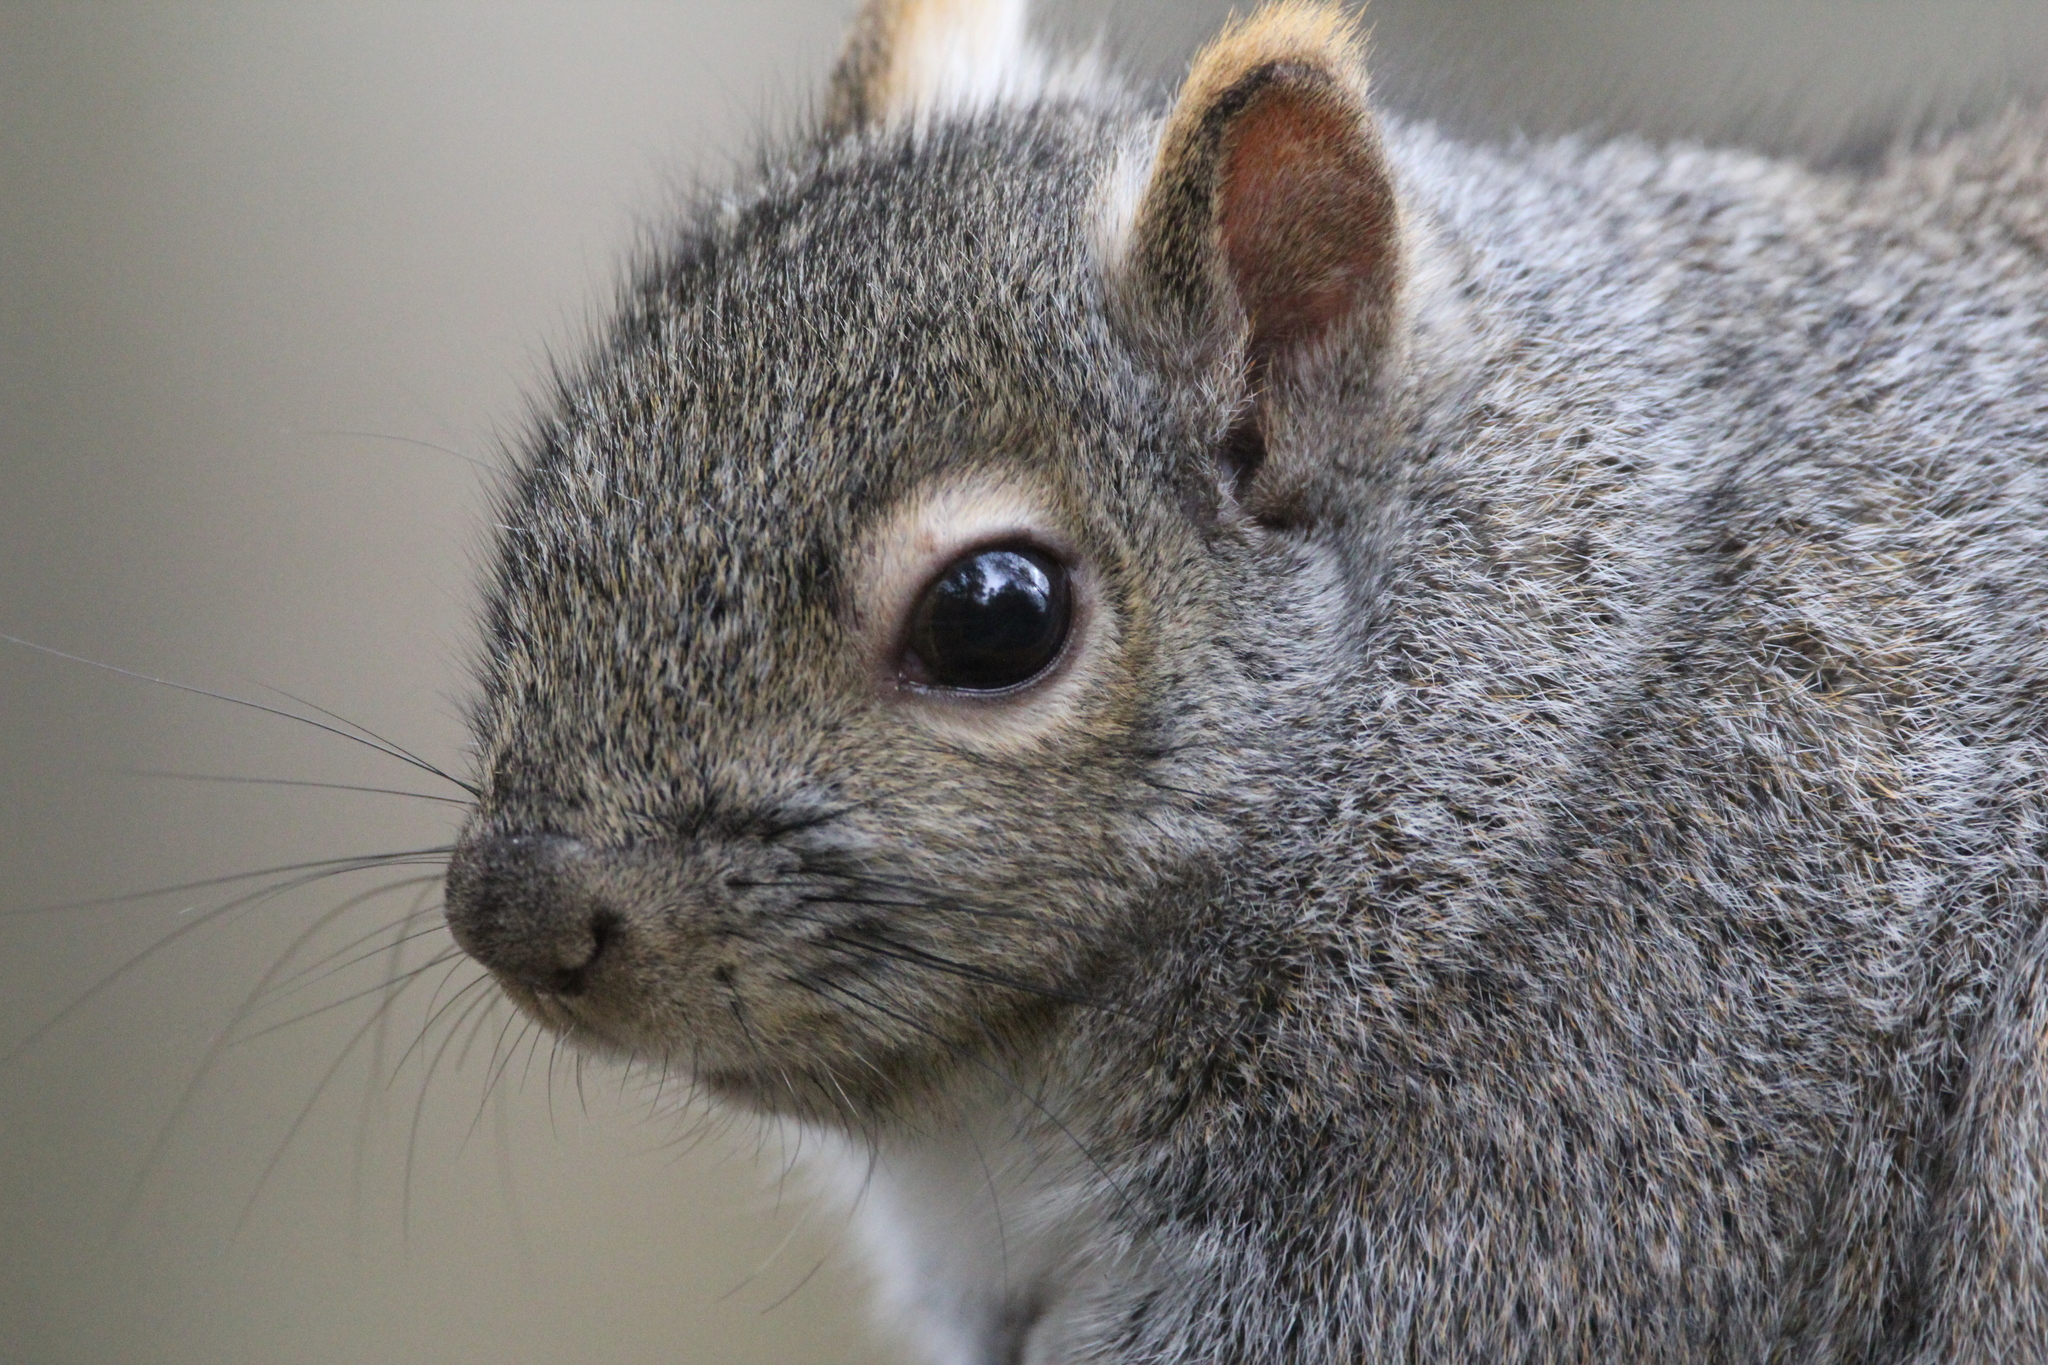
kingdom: Animalia
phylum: Chordata
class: Mammalia
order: Rodentia
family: Sciuridae
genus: Sciurus
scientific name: Sciurus carolinensis
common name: Eastern gray squirrel
